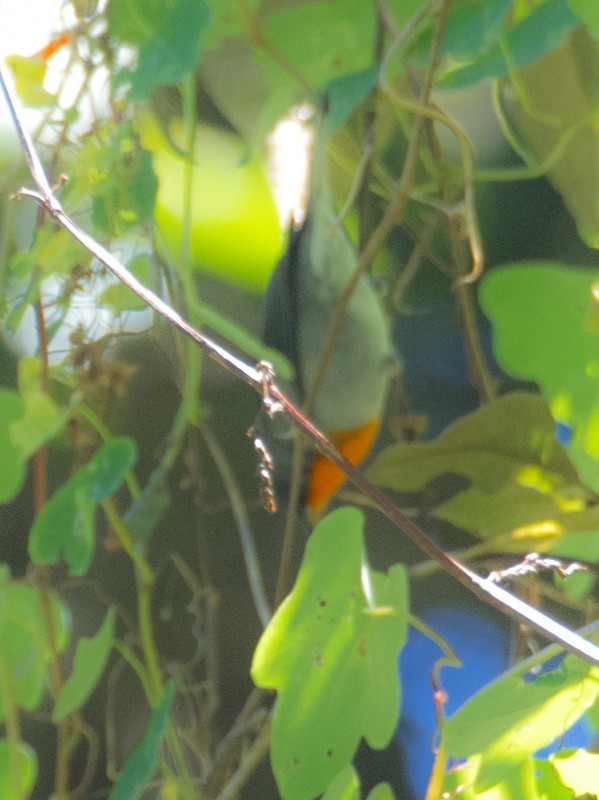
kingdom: Animalia
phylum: Chordata
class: Aves
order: Passeriformes
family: Parulidae
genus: Oreothlypis
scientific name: Oreothlypis gutturalis
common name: Flame-throated warbler
